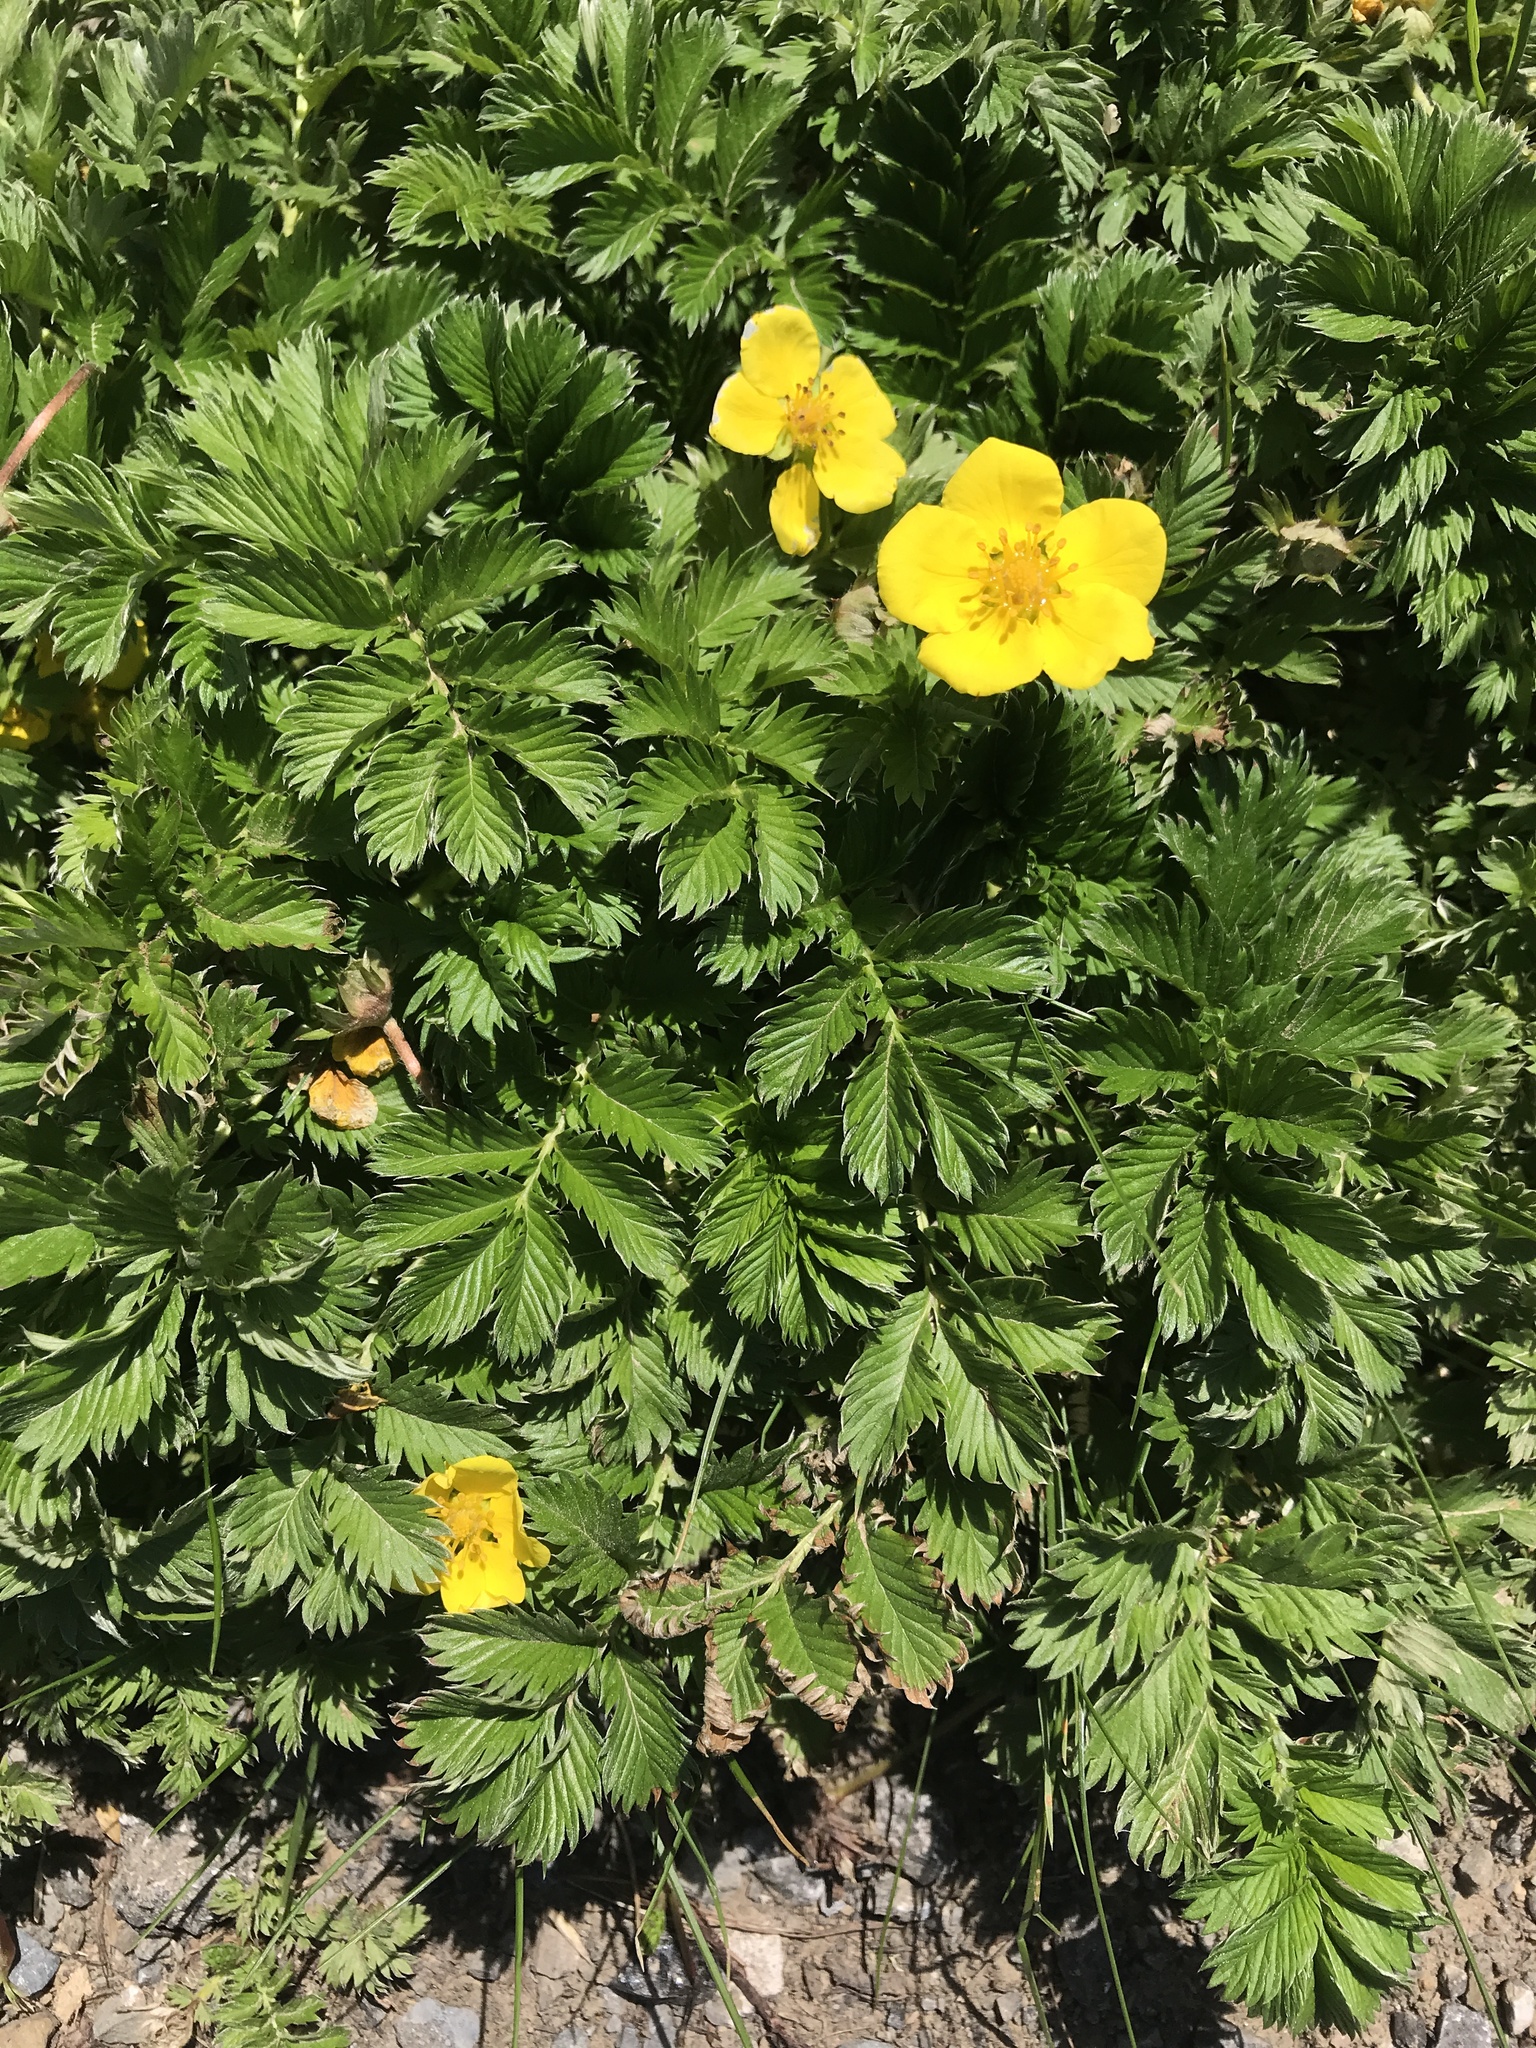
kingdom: Plantae
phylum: Tracheophyta
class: Magnoliopsida
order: Rosales
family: Rosaceae
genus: Argentina
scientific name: Argentina anserina
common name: Common silverweed
